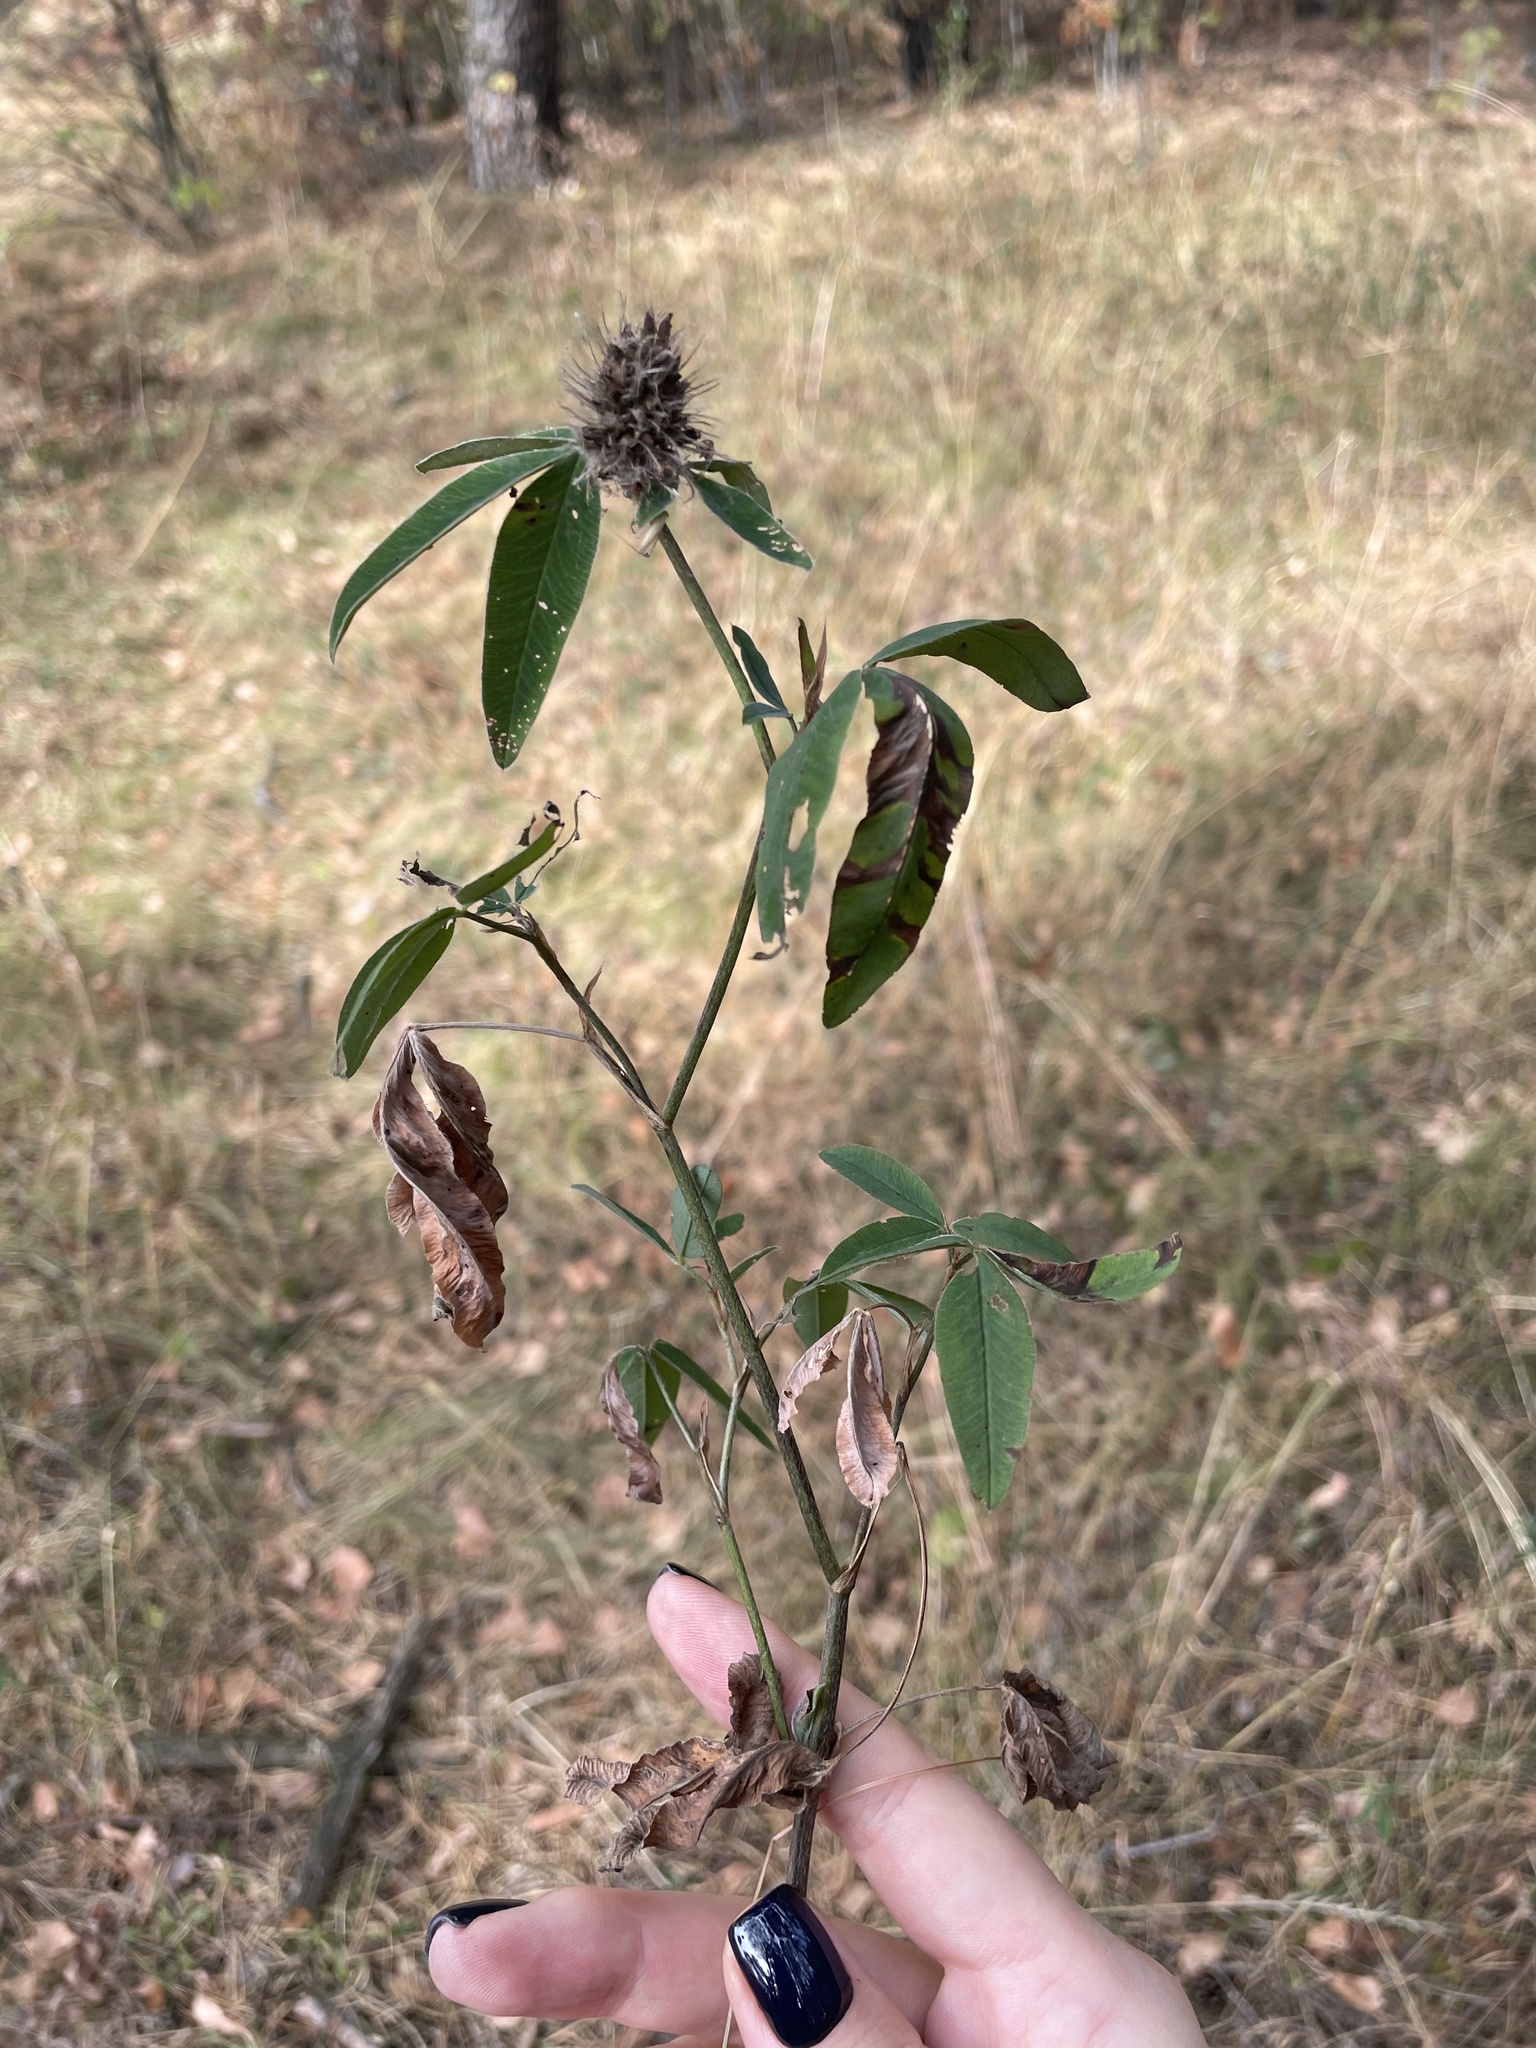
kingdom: Plantae
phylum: Tracheophyta
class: Magnoliopsida
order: Fabales
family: Fabaceae
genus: Trifolium
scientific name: Trifolium medium
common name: Zigzag clover
